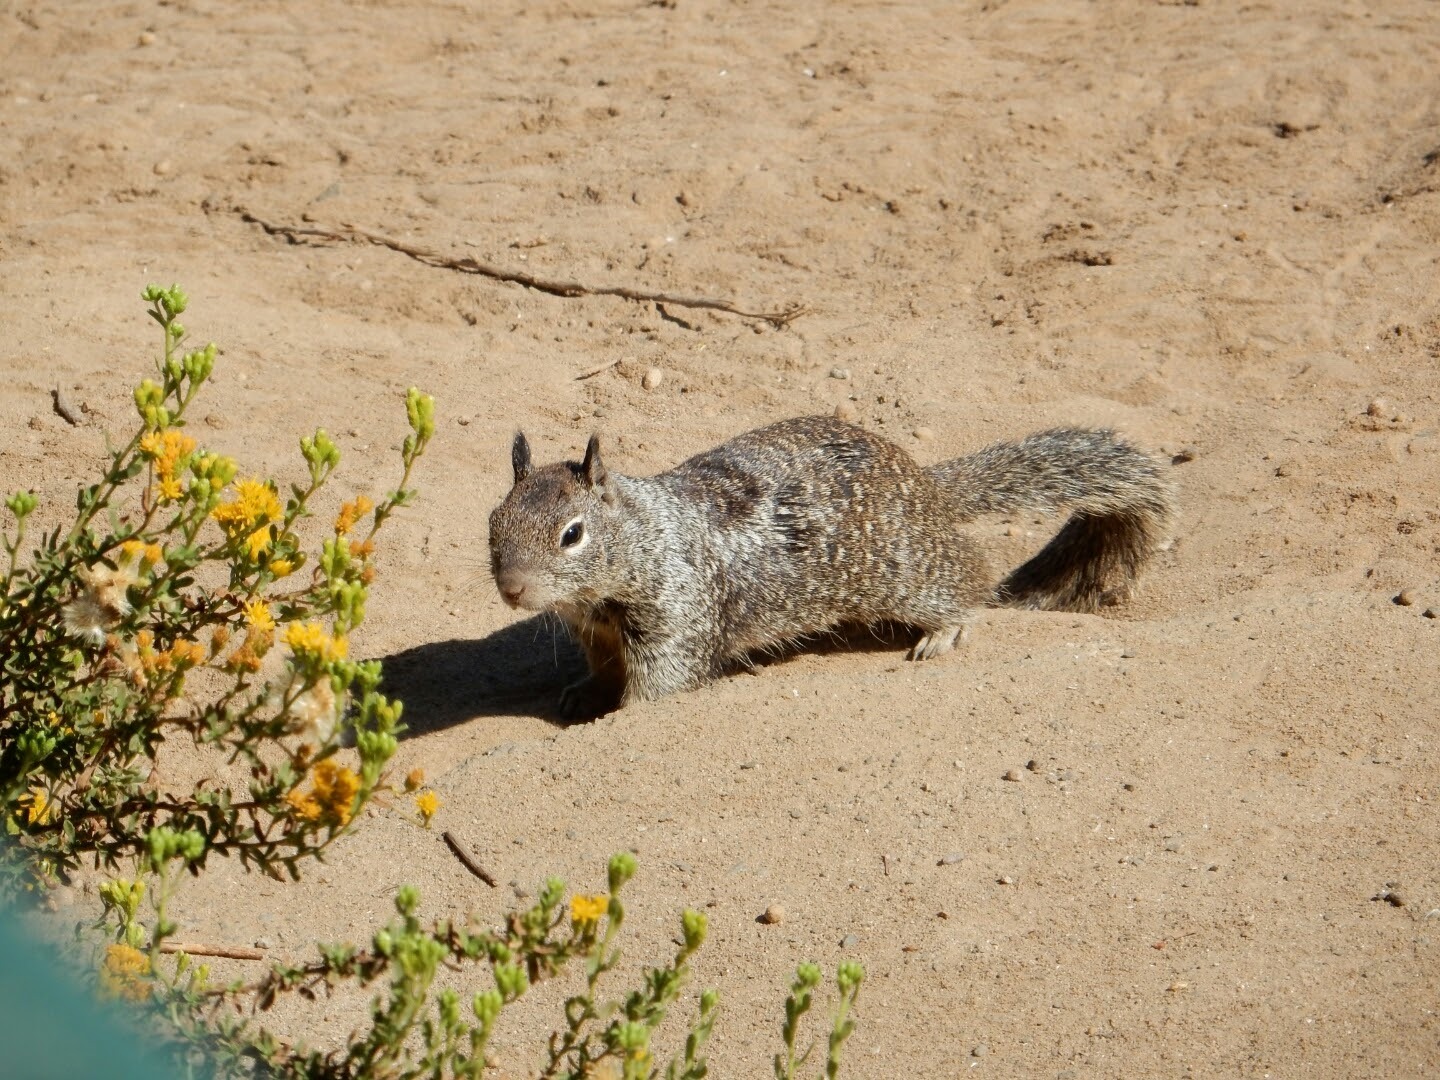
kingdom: Animalia
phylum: Chordata
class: Mammalia
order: Rodentia
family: Sciuridae
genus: Otospermophilus
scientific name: Otospermophilus beecheyi
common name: California ground squirrel
